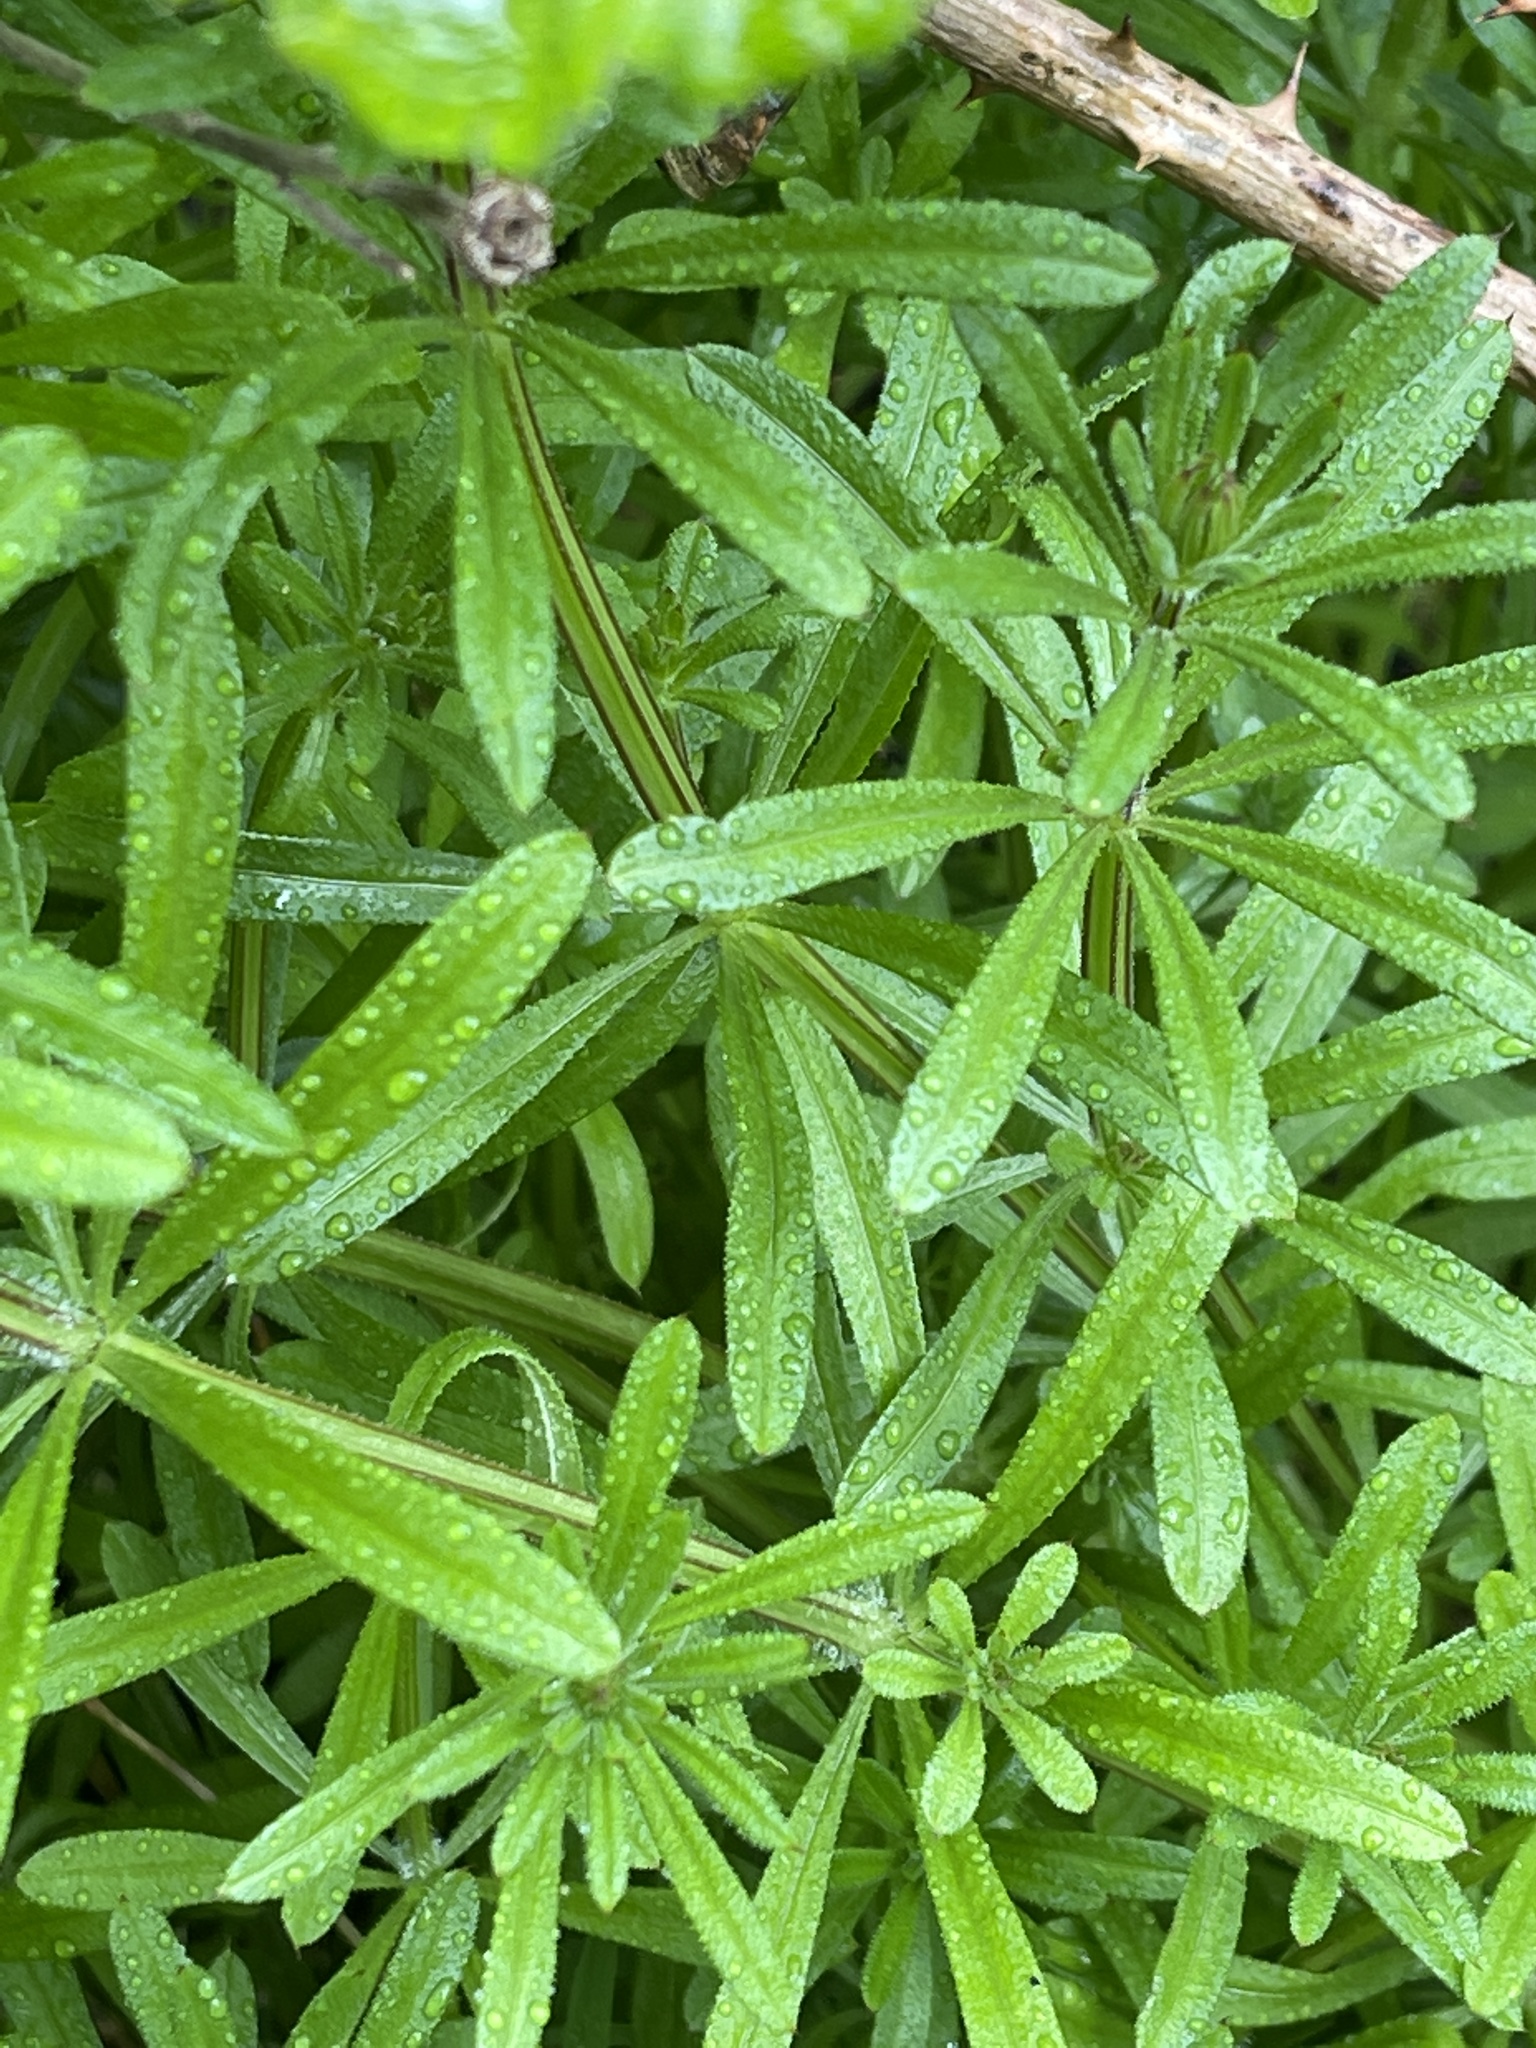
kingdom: Plantae
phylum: Tracheophyta
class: Magnoliopsida
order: Gentianales
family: Rubiaceae
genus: Galium
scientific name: Galium aparine
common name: Cleavers
